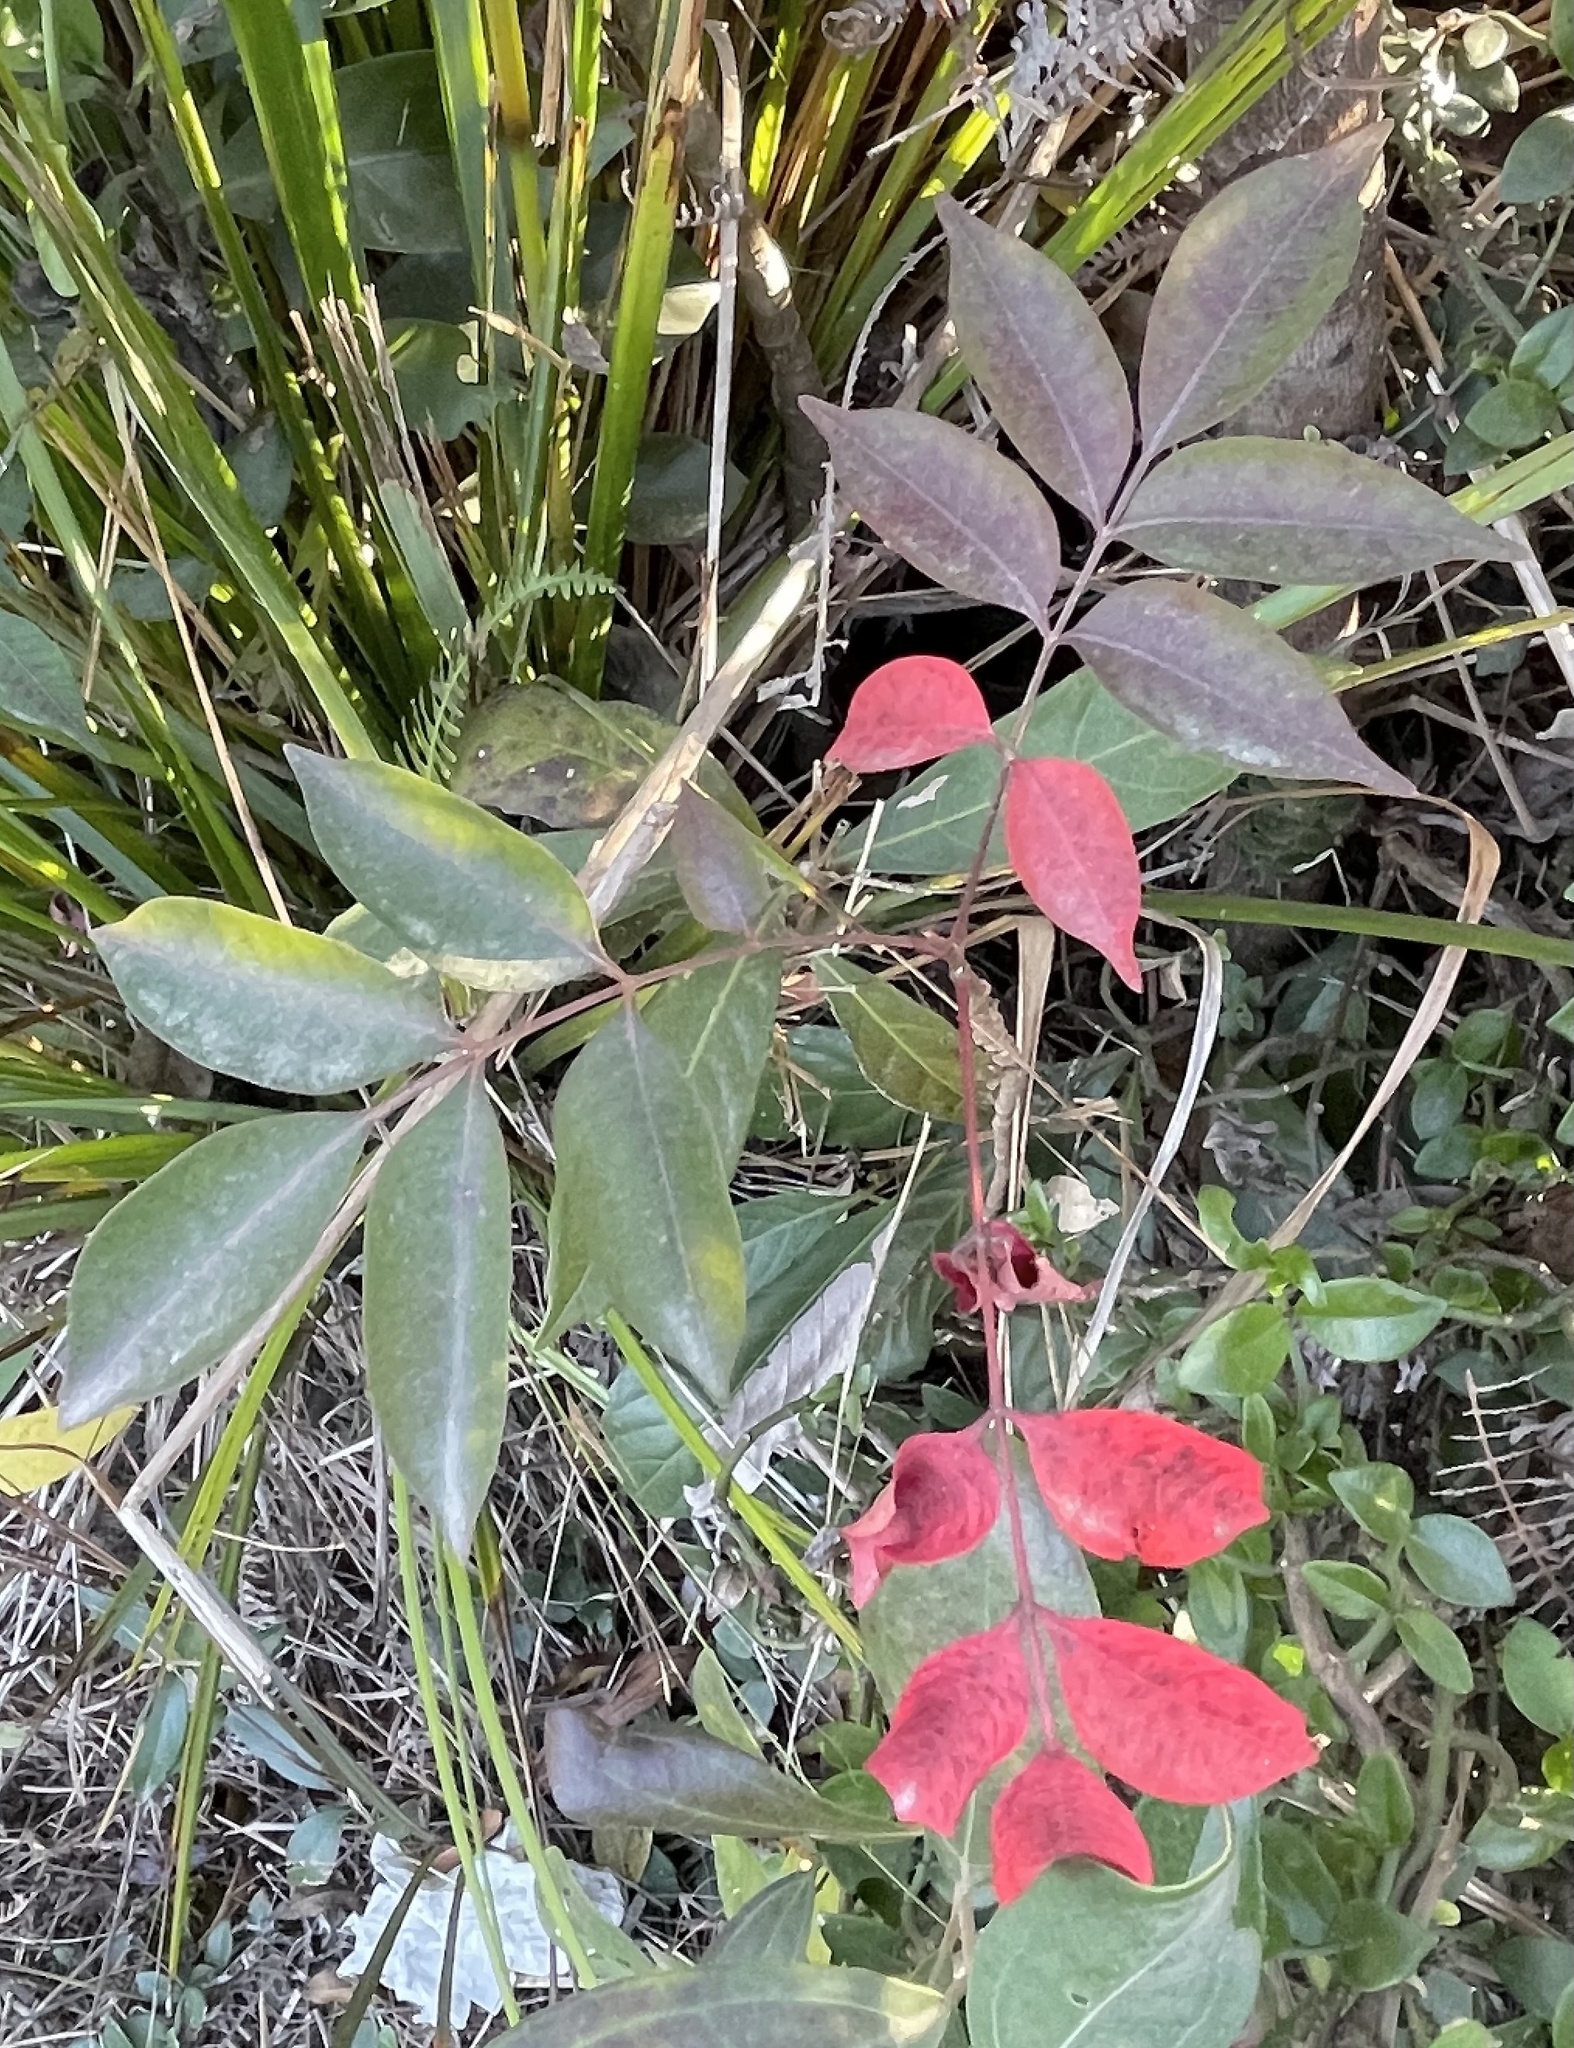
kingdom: Plantae
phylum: Tracheophyta
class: Magnoliopsida
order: Sapindales
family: Anacardiaceae
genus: Toxicodendron
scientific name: Toxicodendron succedaneum
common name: Wax tree
